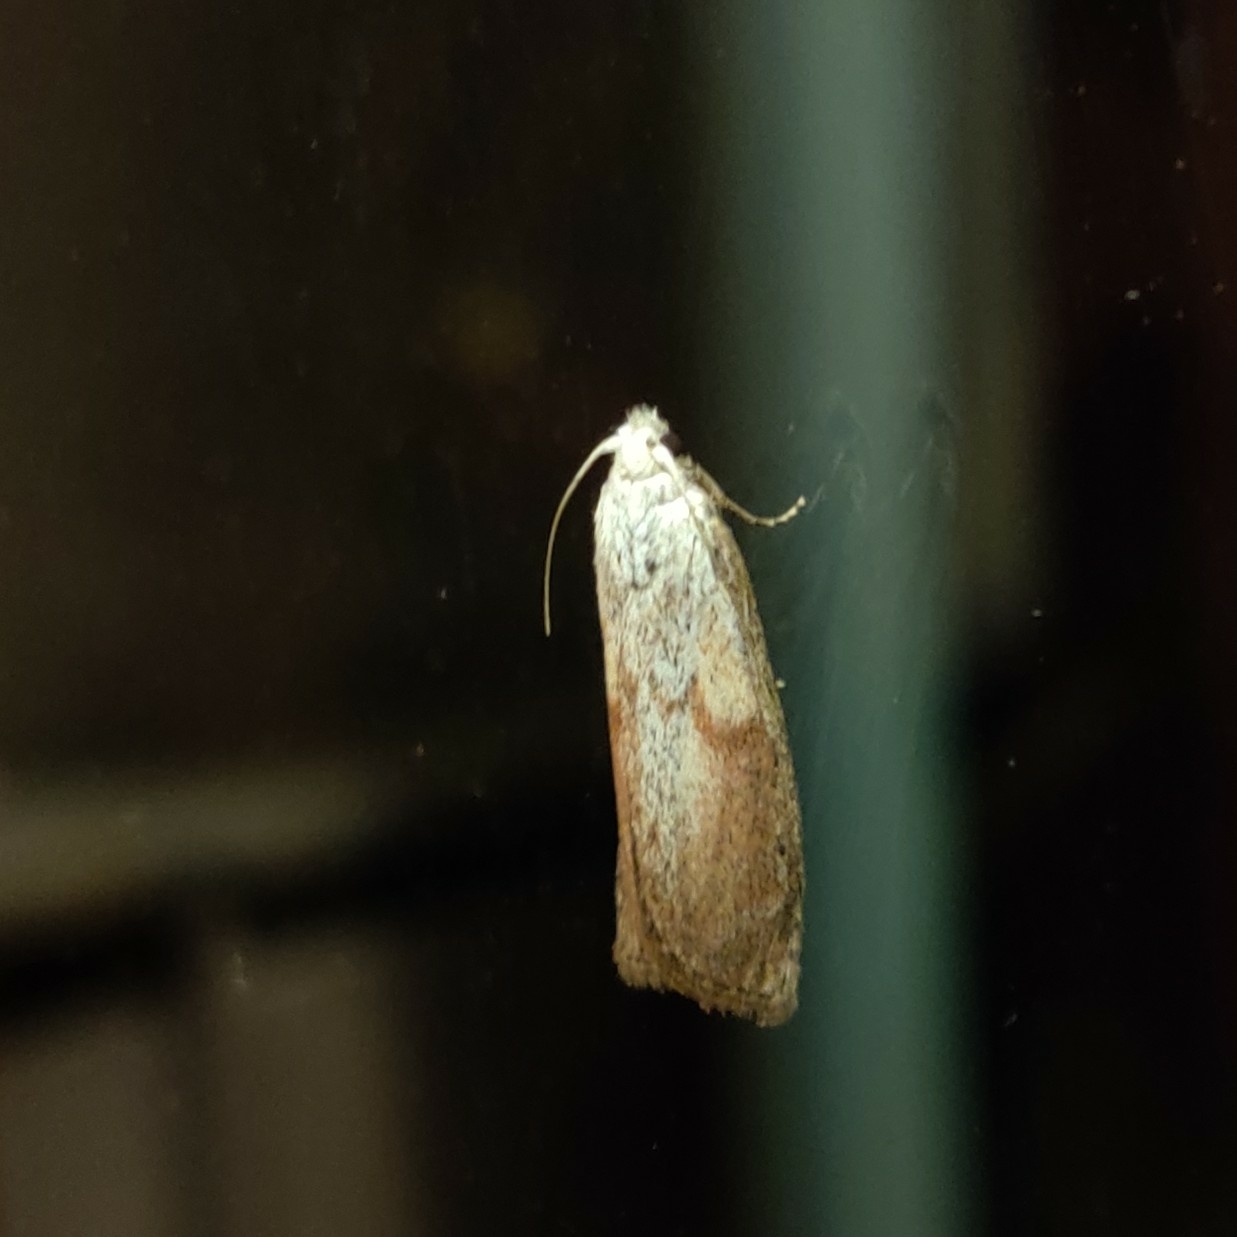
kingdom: Animalia
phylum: Arthropoda
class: Insecta
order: Lepidoptera
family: Pyralidae
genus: Aphomia
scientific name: Aphomia sociella
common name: Bee moth
